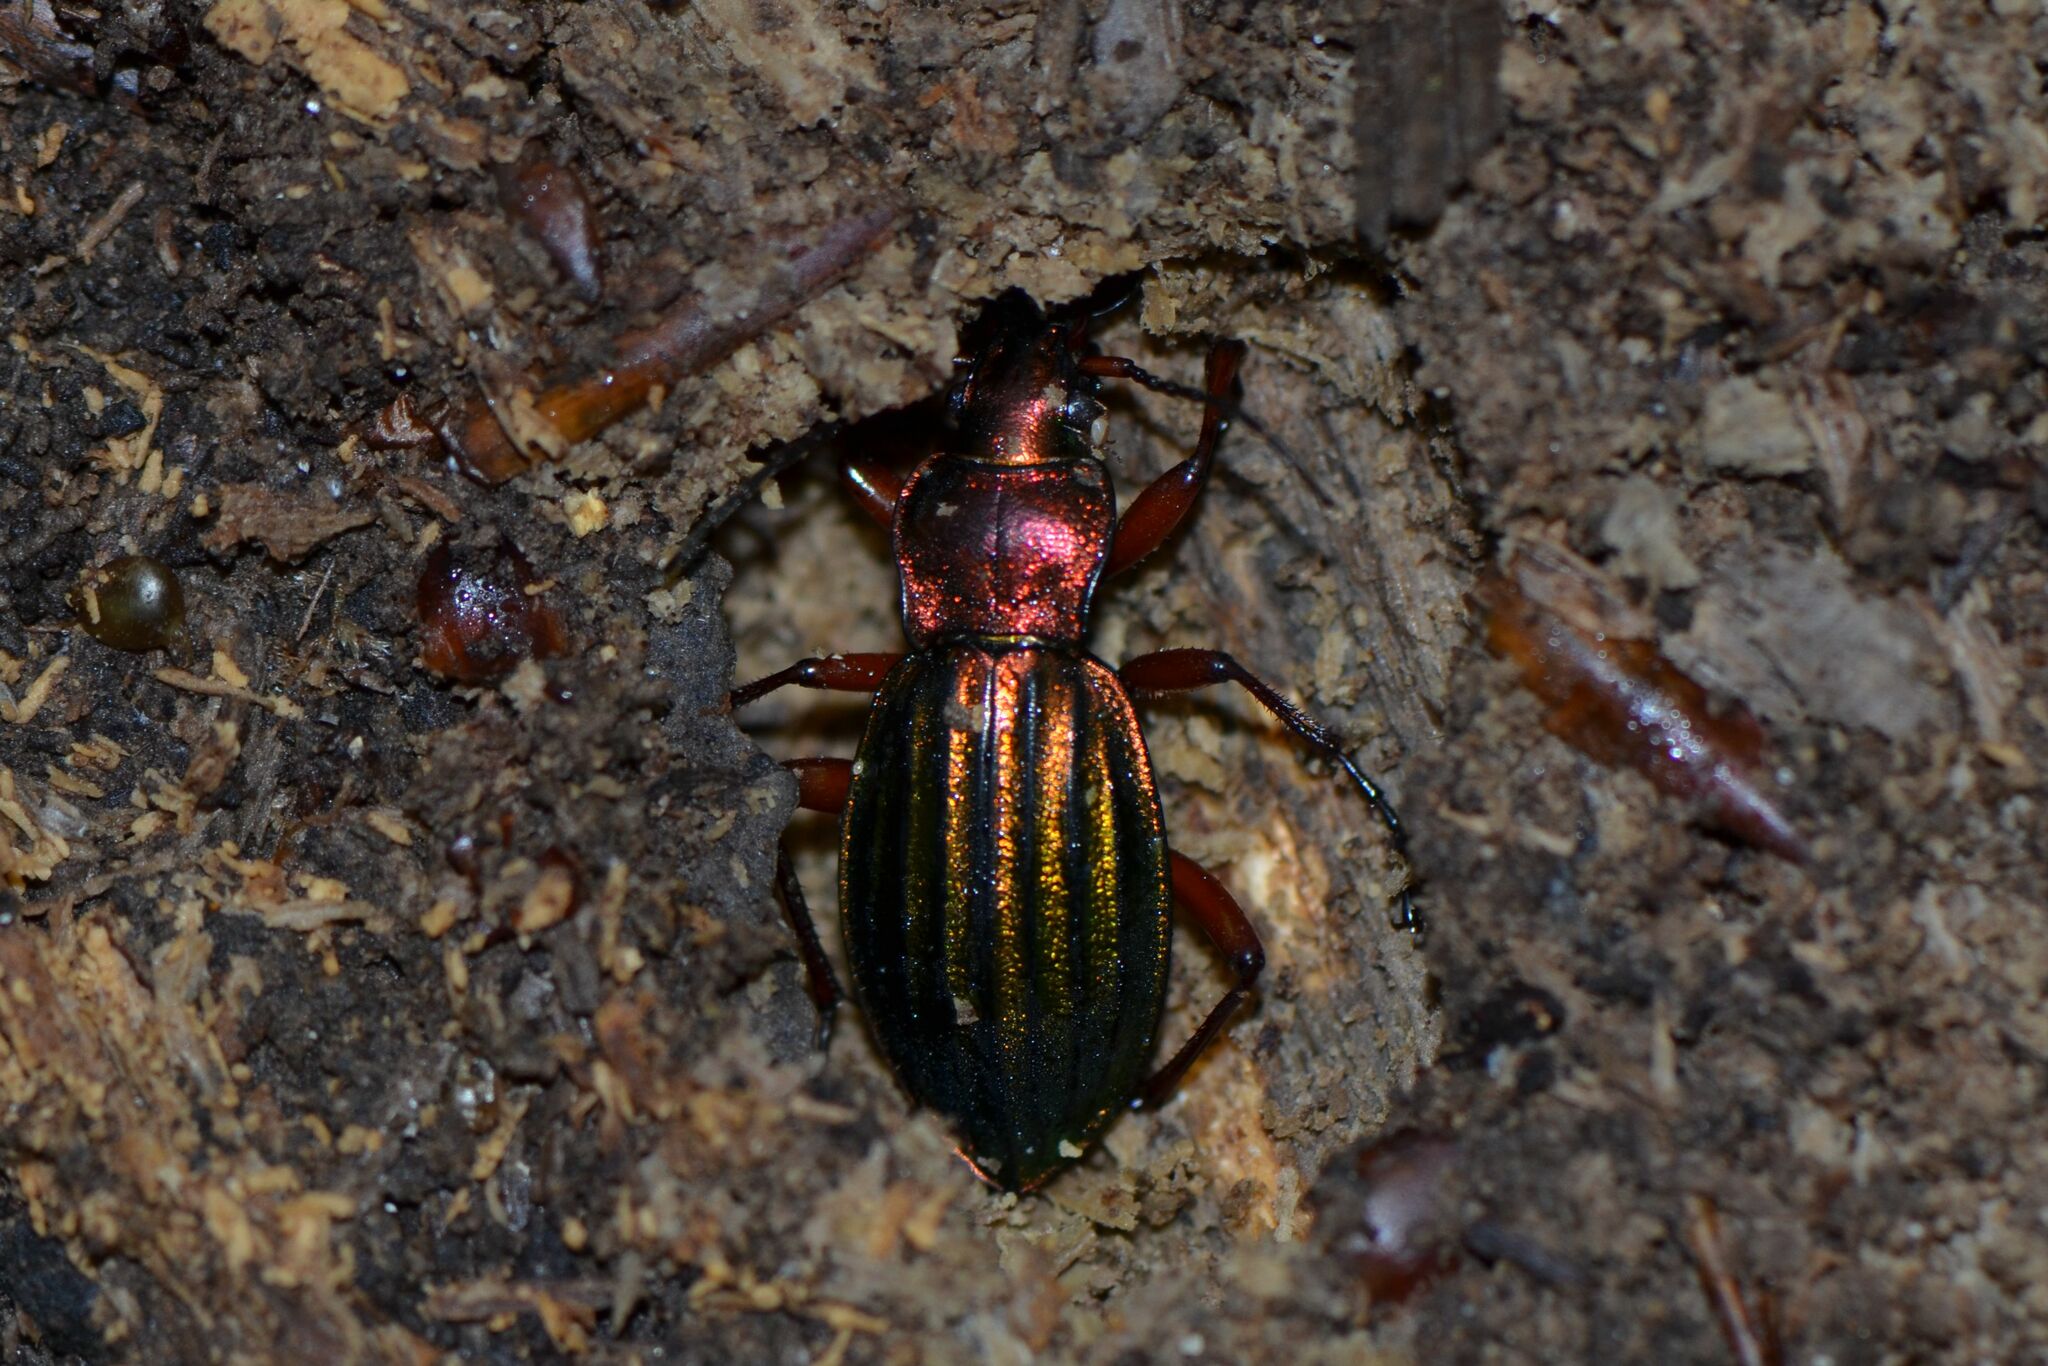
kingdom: Animalia
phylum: Arthropoda
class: Insecta
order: Coleoptera
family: Carabidae
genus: Carabus
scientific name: Carabus auronitens
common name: Carabus auronitens
